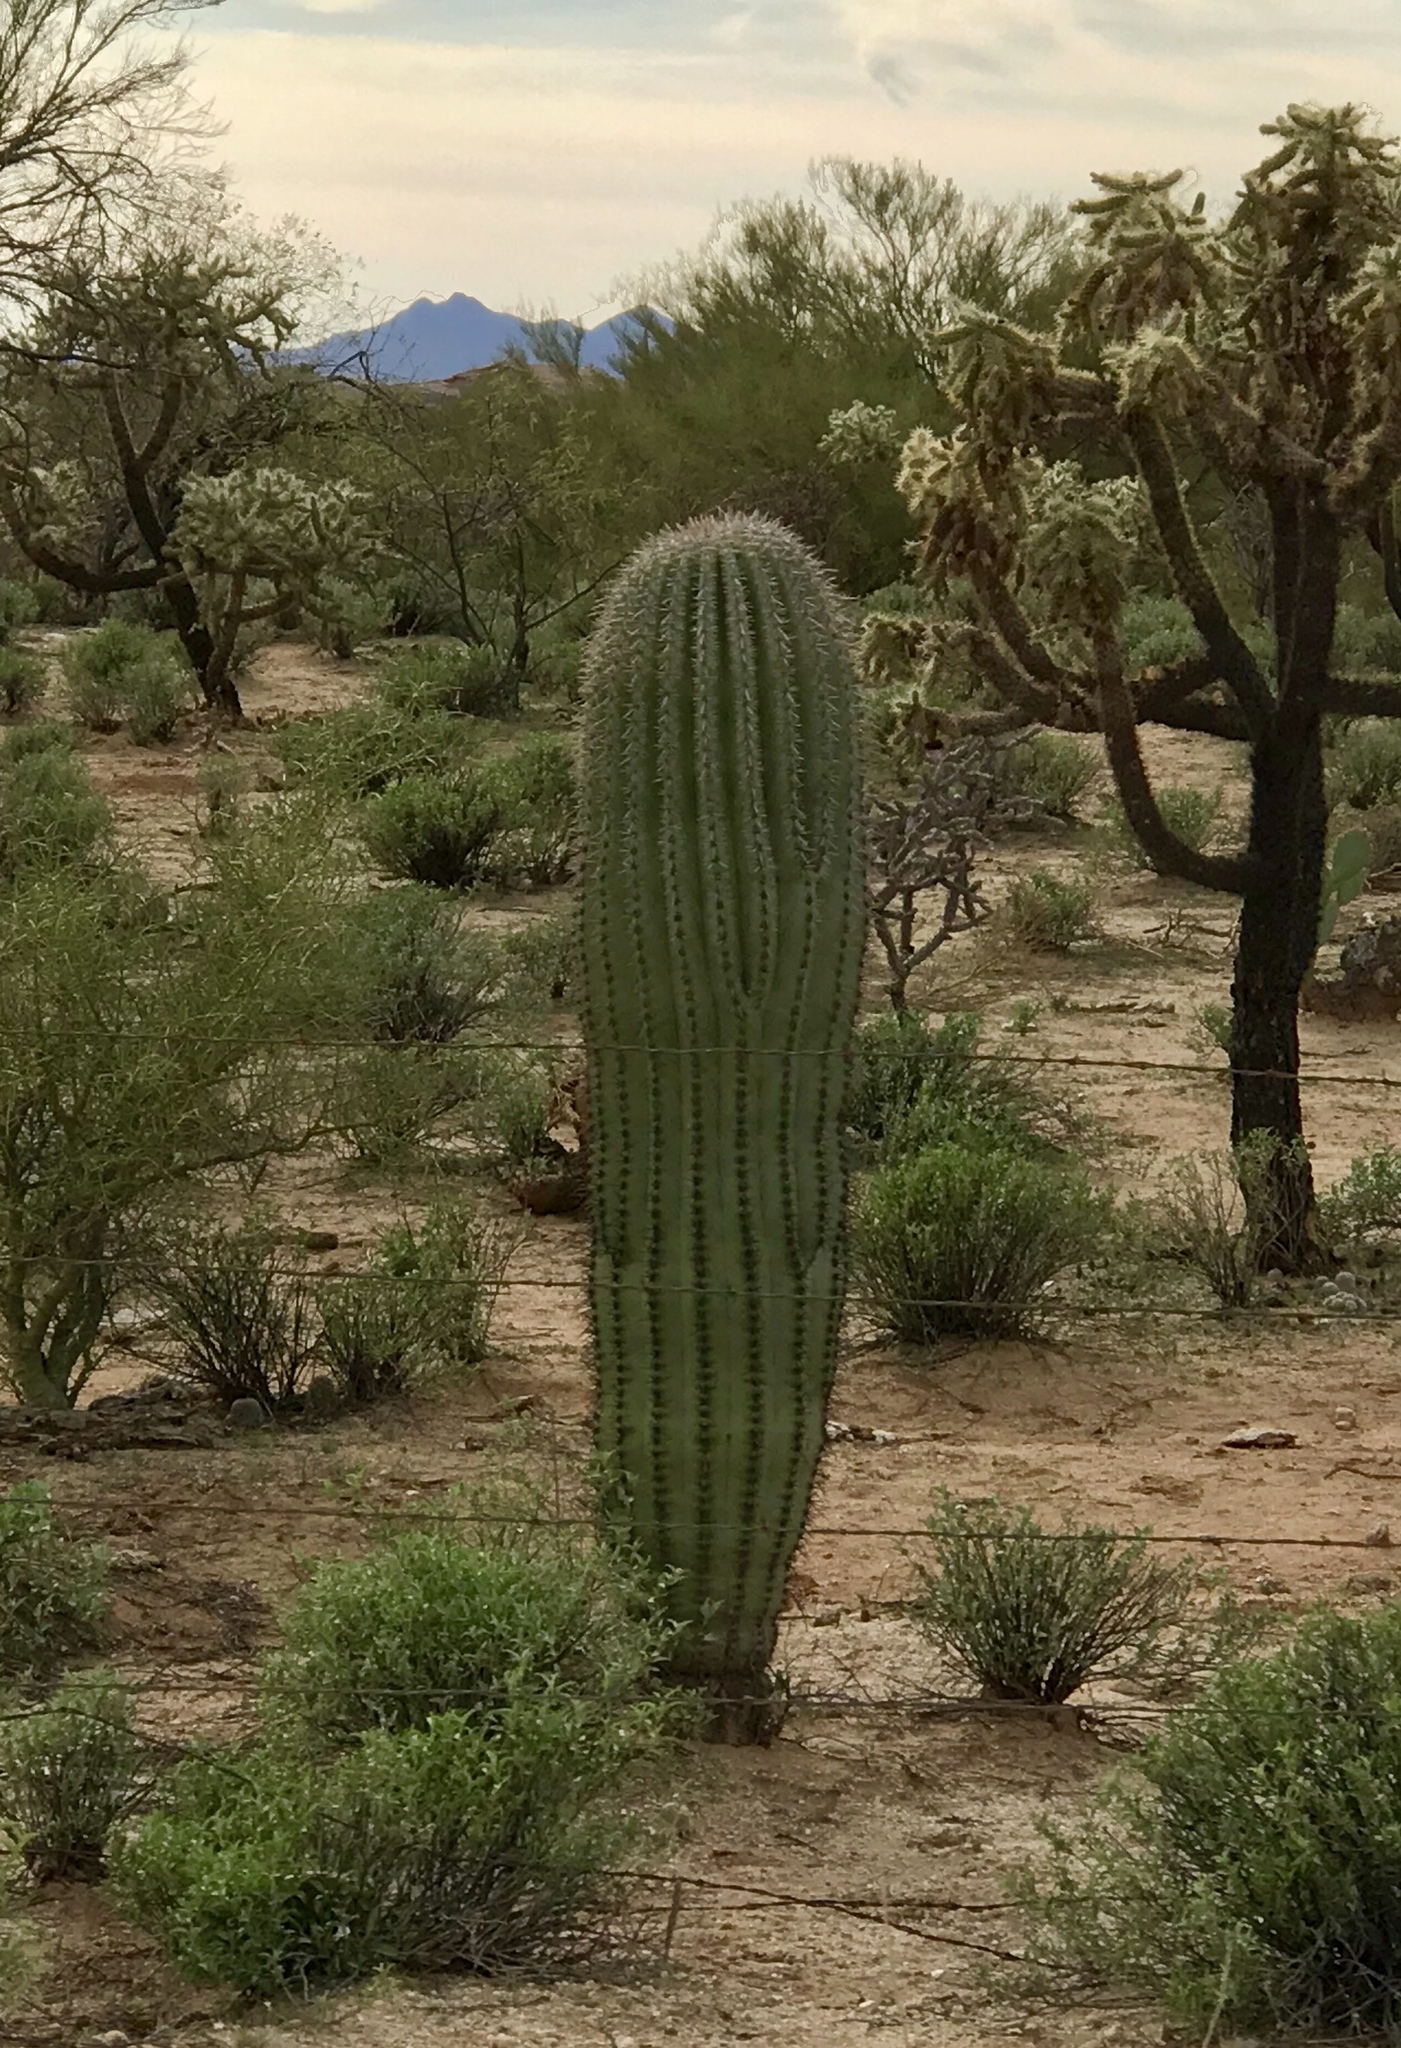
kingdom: Plantae
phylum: Tracheophyta
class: Magnoliopsida
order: Caryophyllales
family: Cactaceae
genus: Carnegiea
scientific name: Carnegiea gigantea
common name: Saguaro
